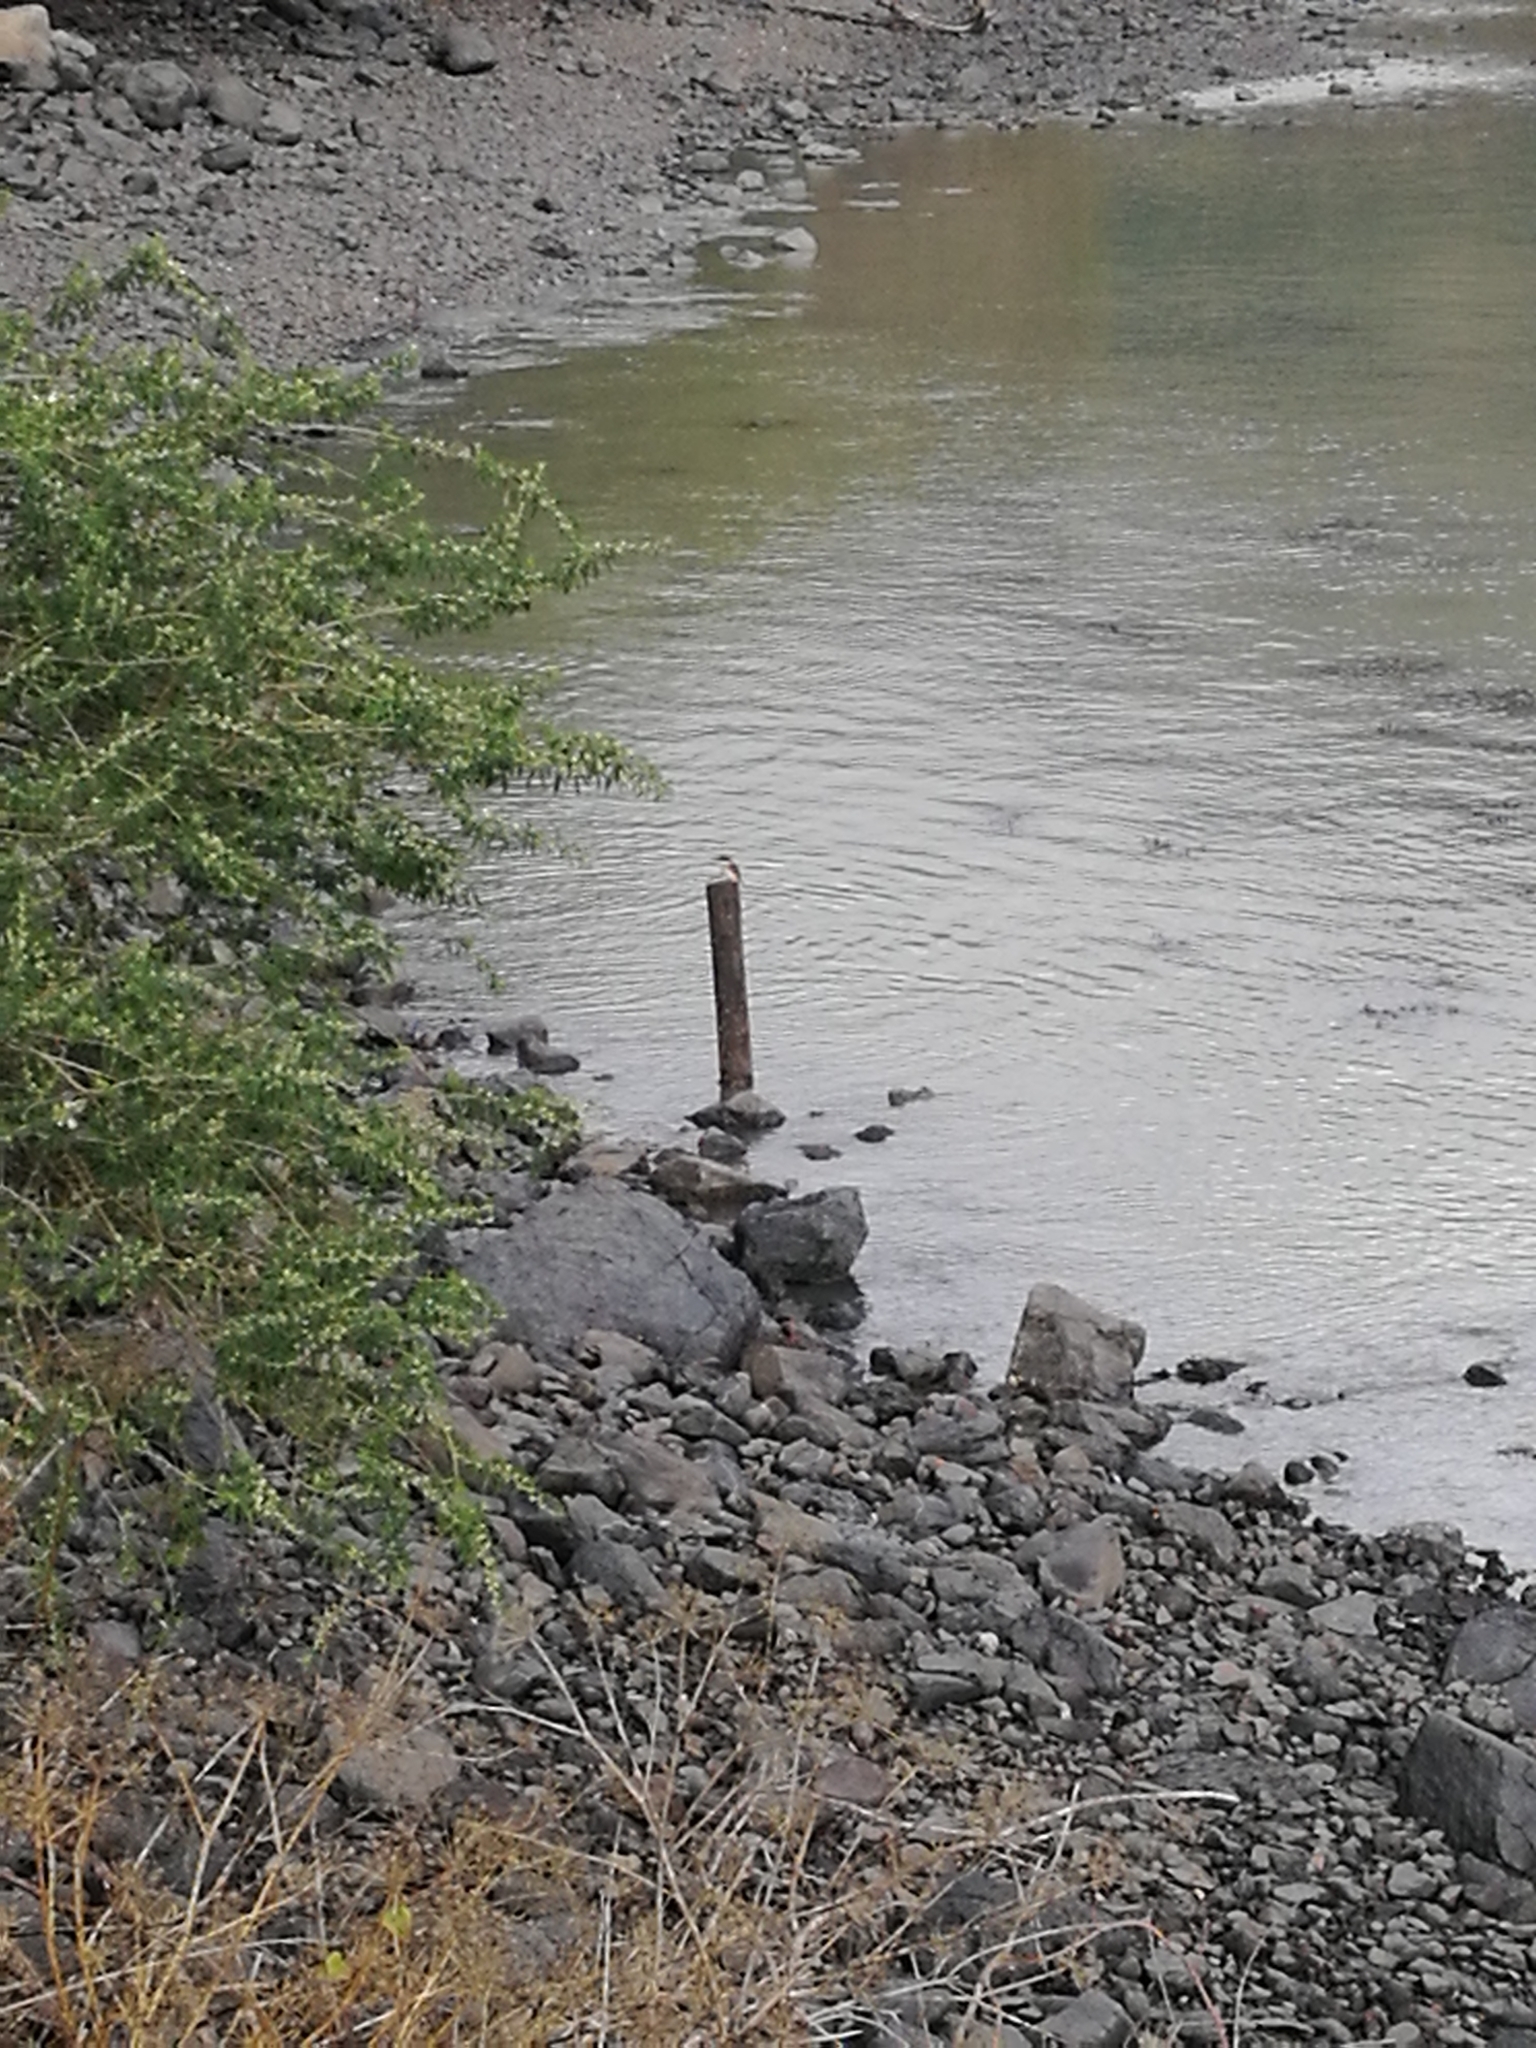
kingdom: Animalia
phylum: Chordata
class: Aves
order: Coraciiformes
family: Alcedinidae
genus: Todiramphus
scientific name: Todiramphus sanctus
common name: Sacred kingfisher
